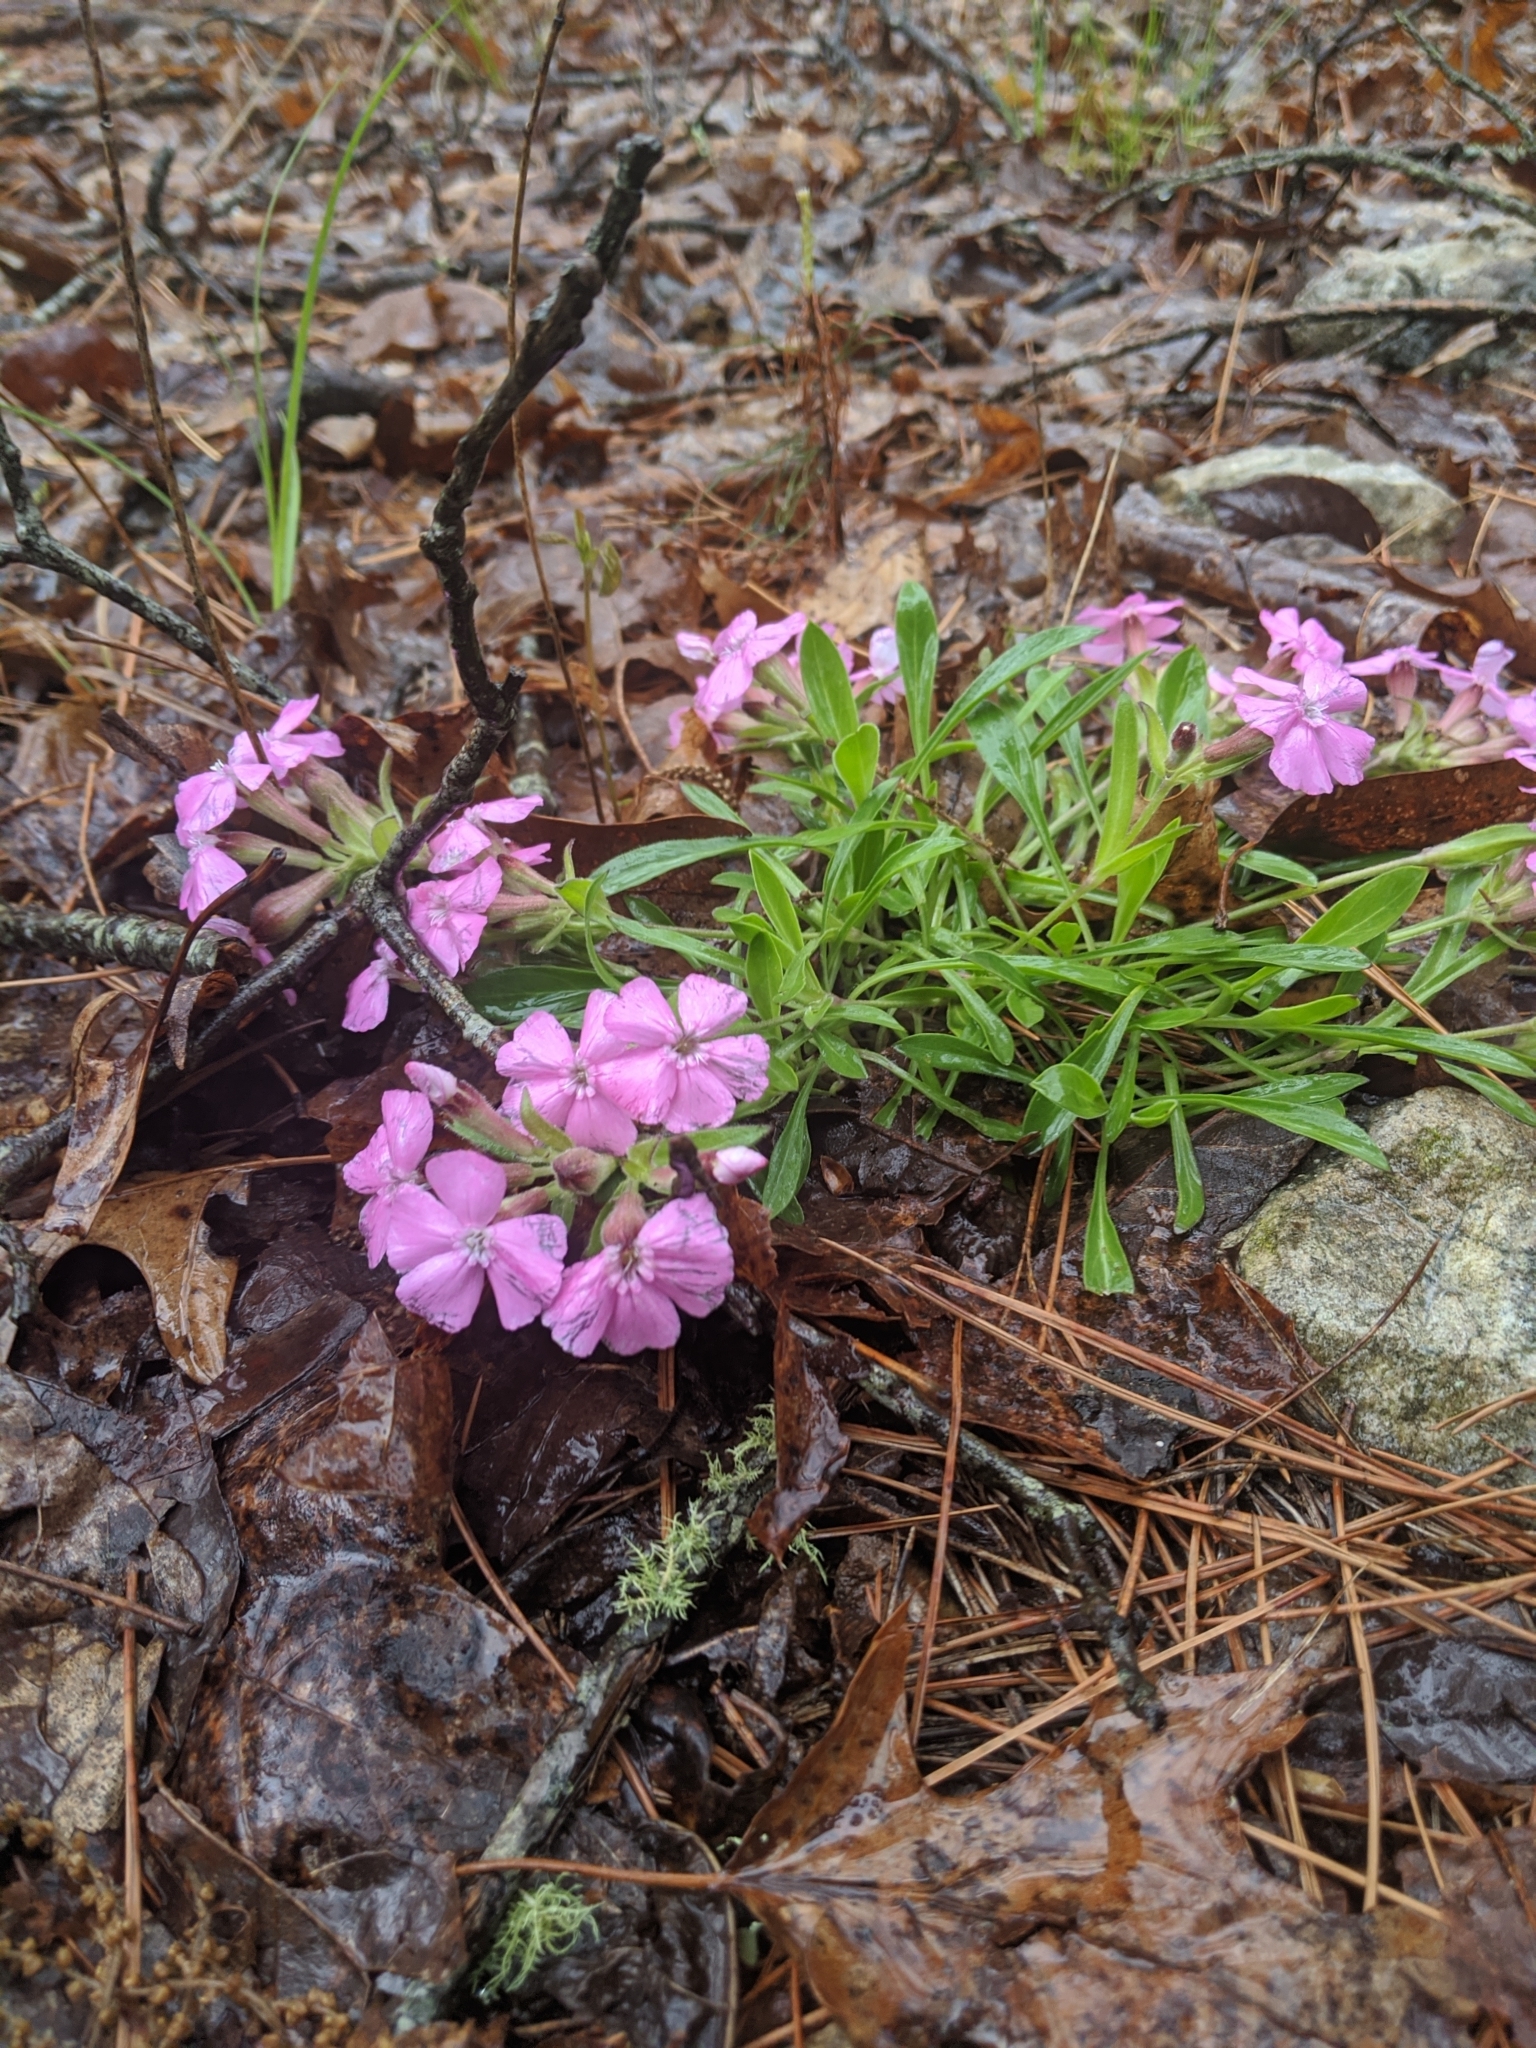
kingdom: Plantae
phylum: Tracheophyta
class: Magnoliopsida
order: Caryophyllales
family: Caryophyllaceae
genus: Silene
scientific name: Silene caroliniana
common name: Sticky catchfly
